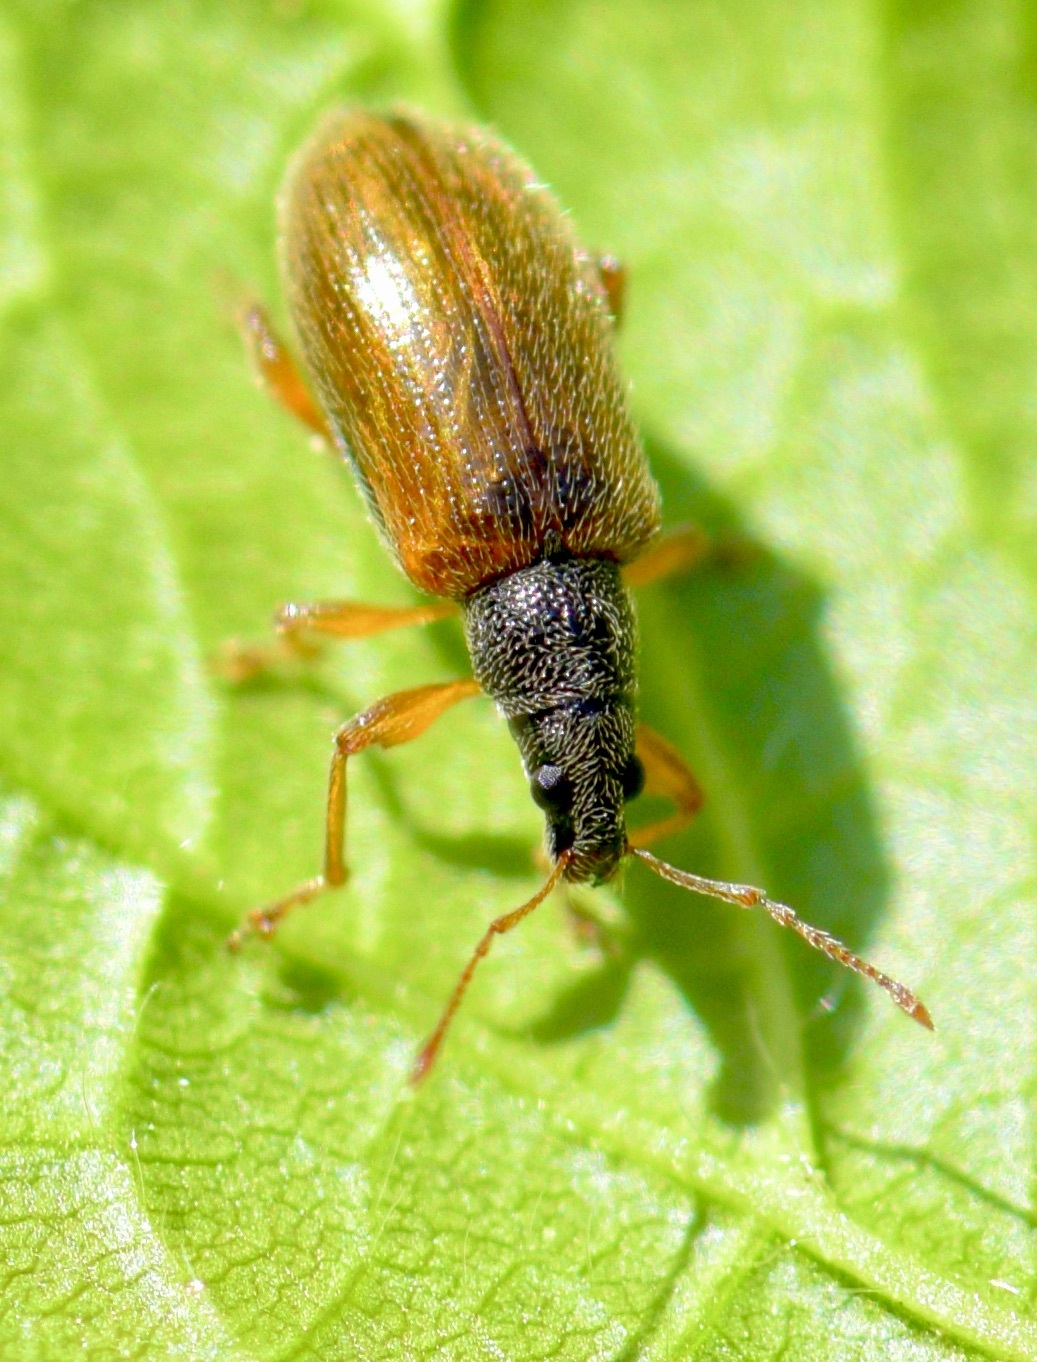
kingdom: Animalia
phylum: Arthropoda
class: Insecta
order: Coleoptera
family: Curculionidae
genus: Phyllobius
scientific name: Phyllobius oblongus
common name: Brown leaf weevil
